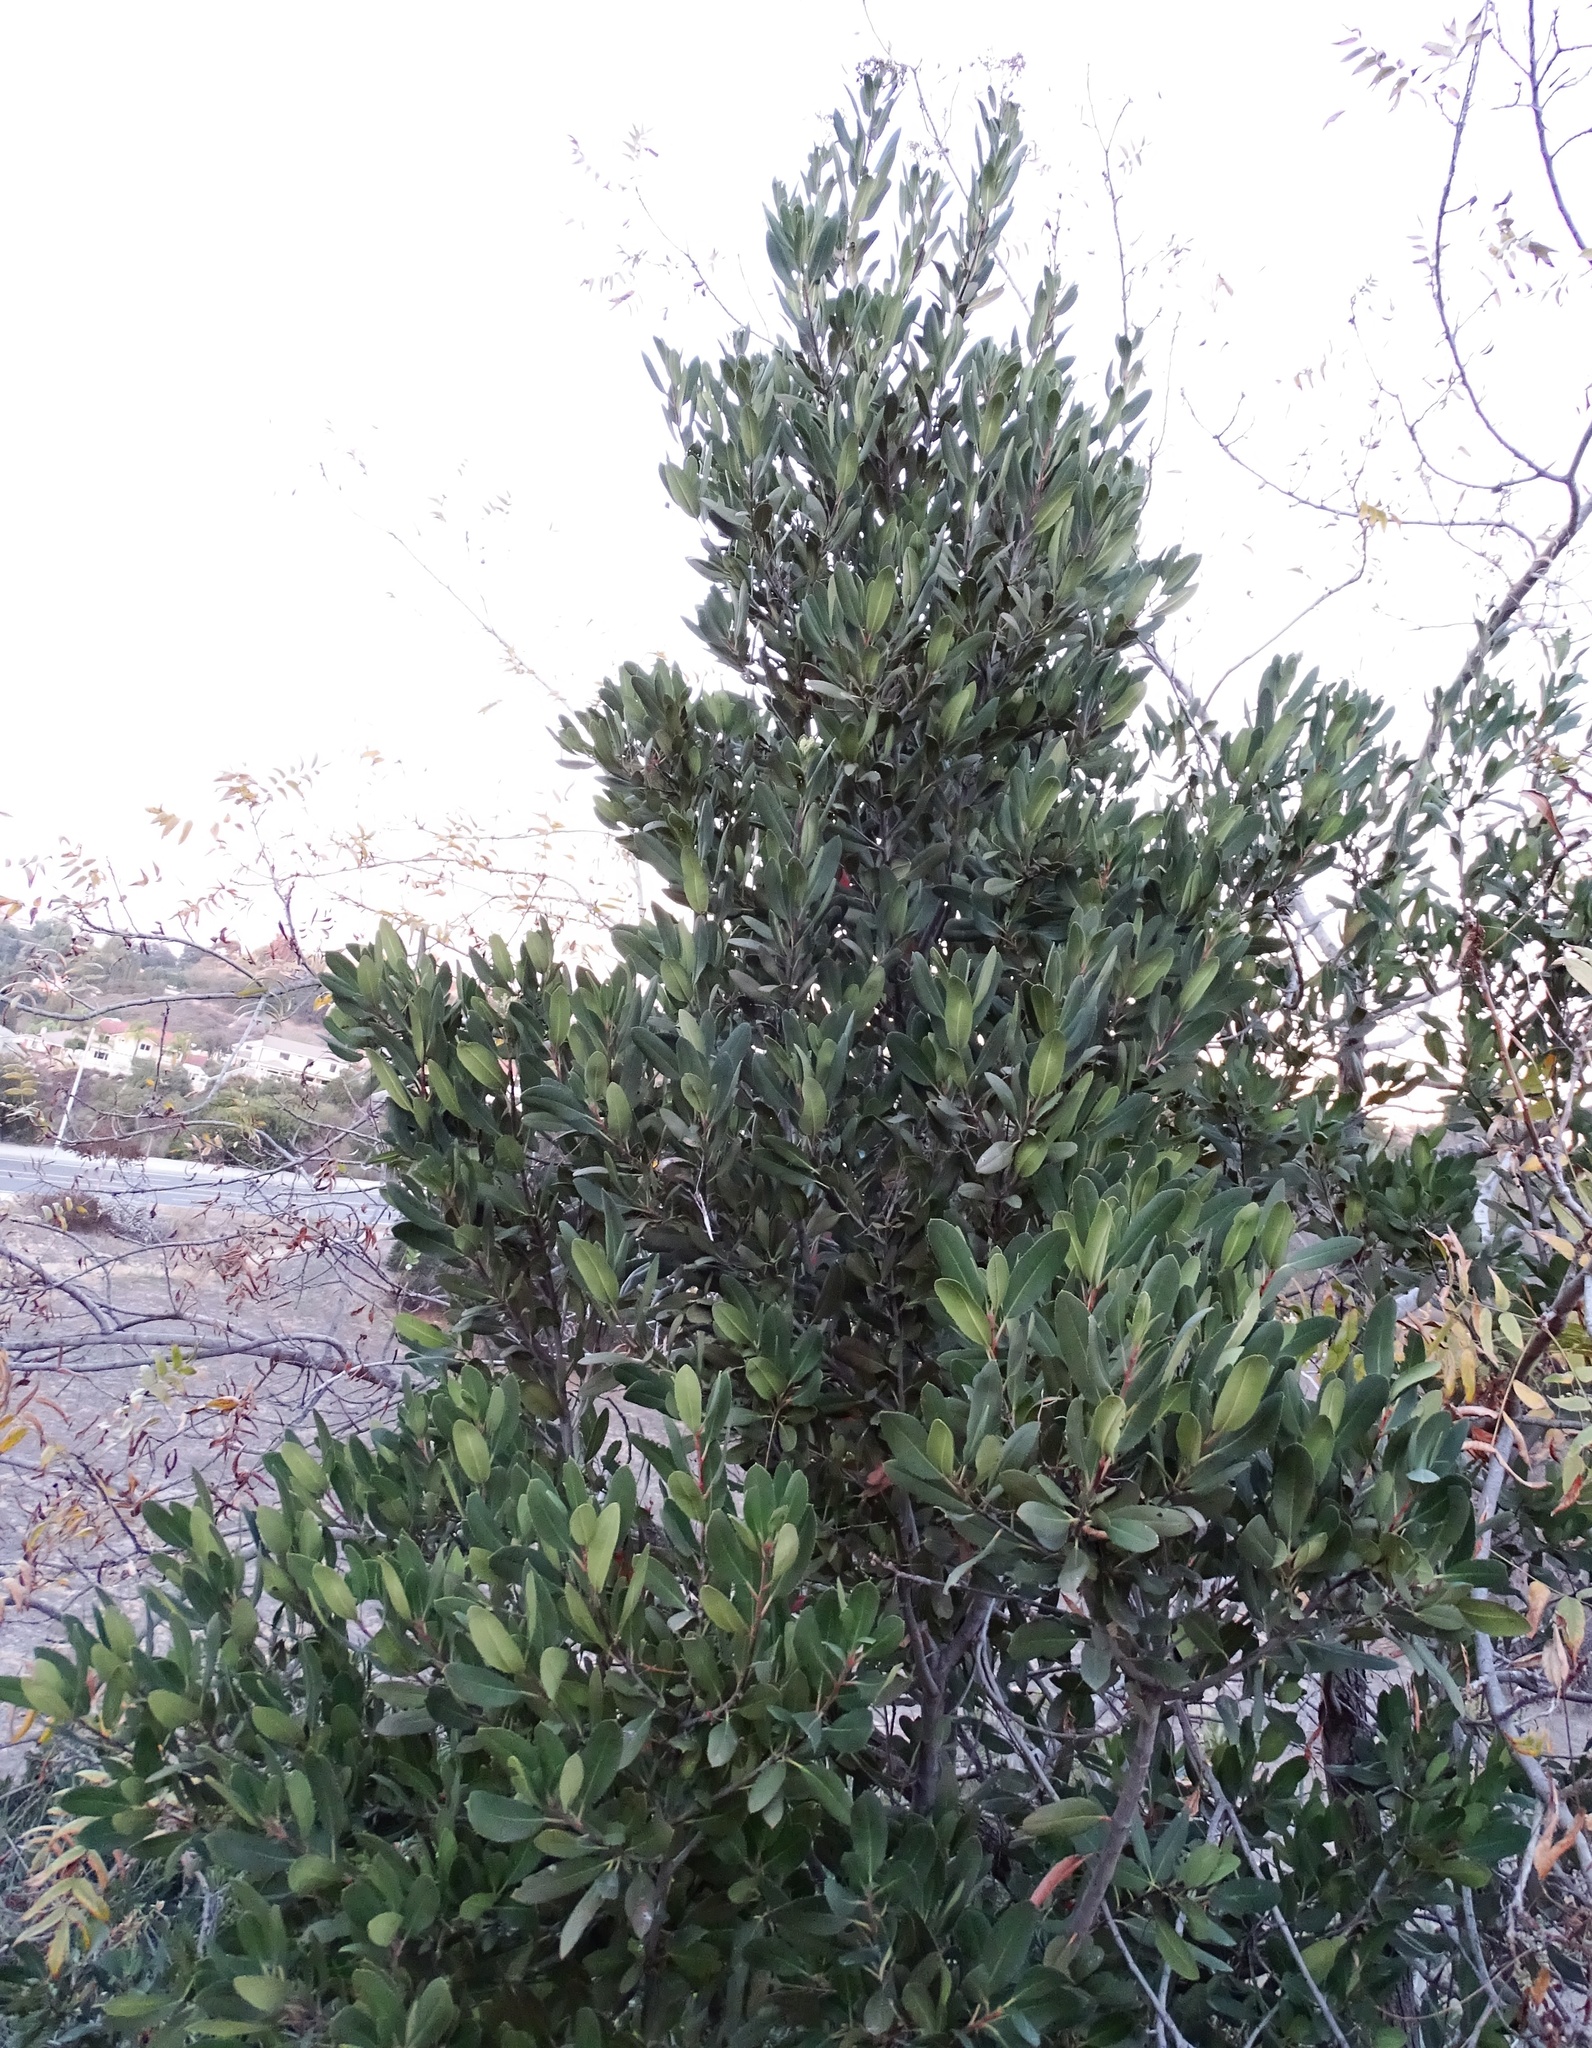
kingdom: Plantae
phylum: Tracheophyta
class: Magnoliopsida
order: Rosales
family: Rosaceae
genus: Heteromeles
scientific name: Heteromeles arbutifolia
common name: California-holly
